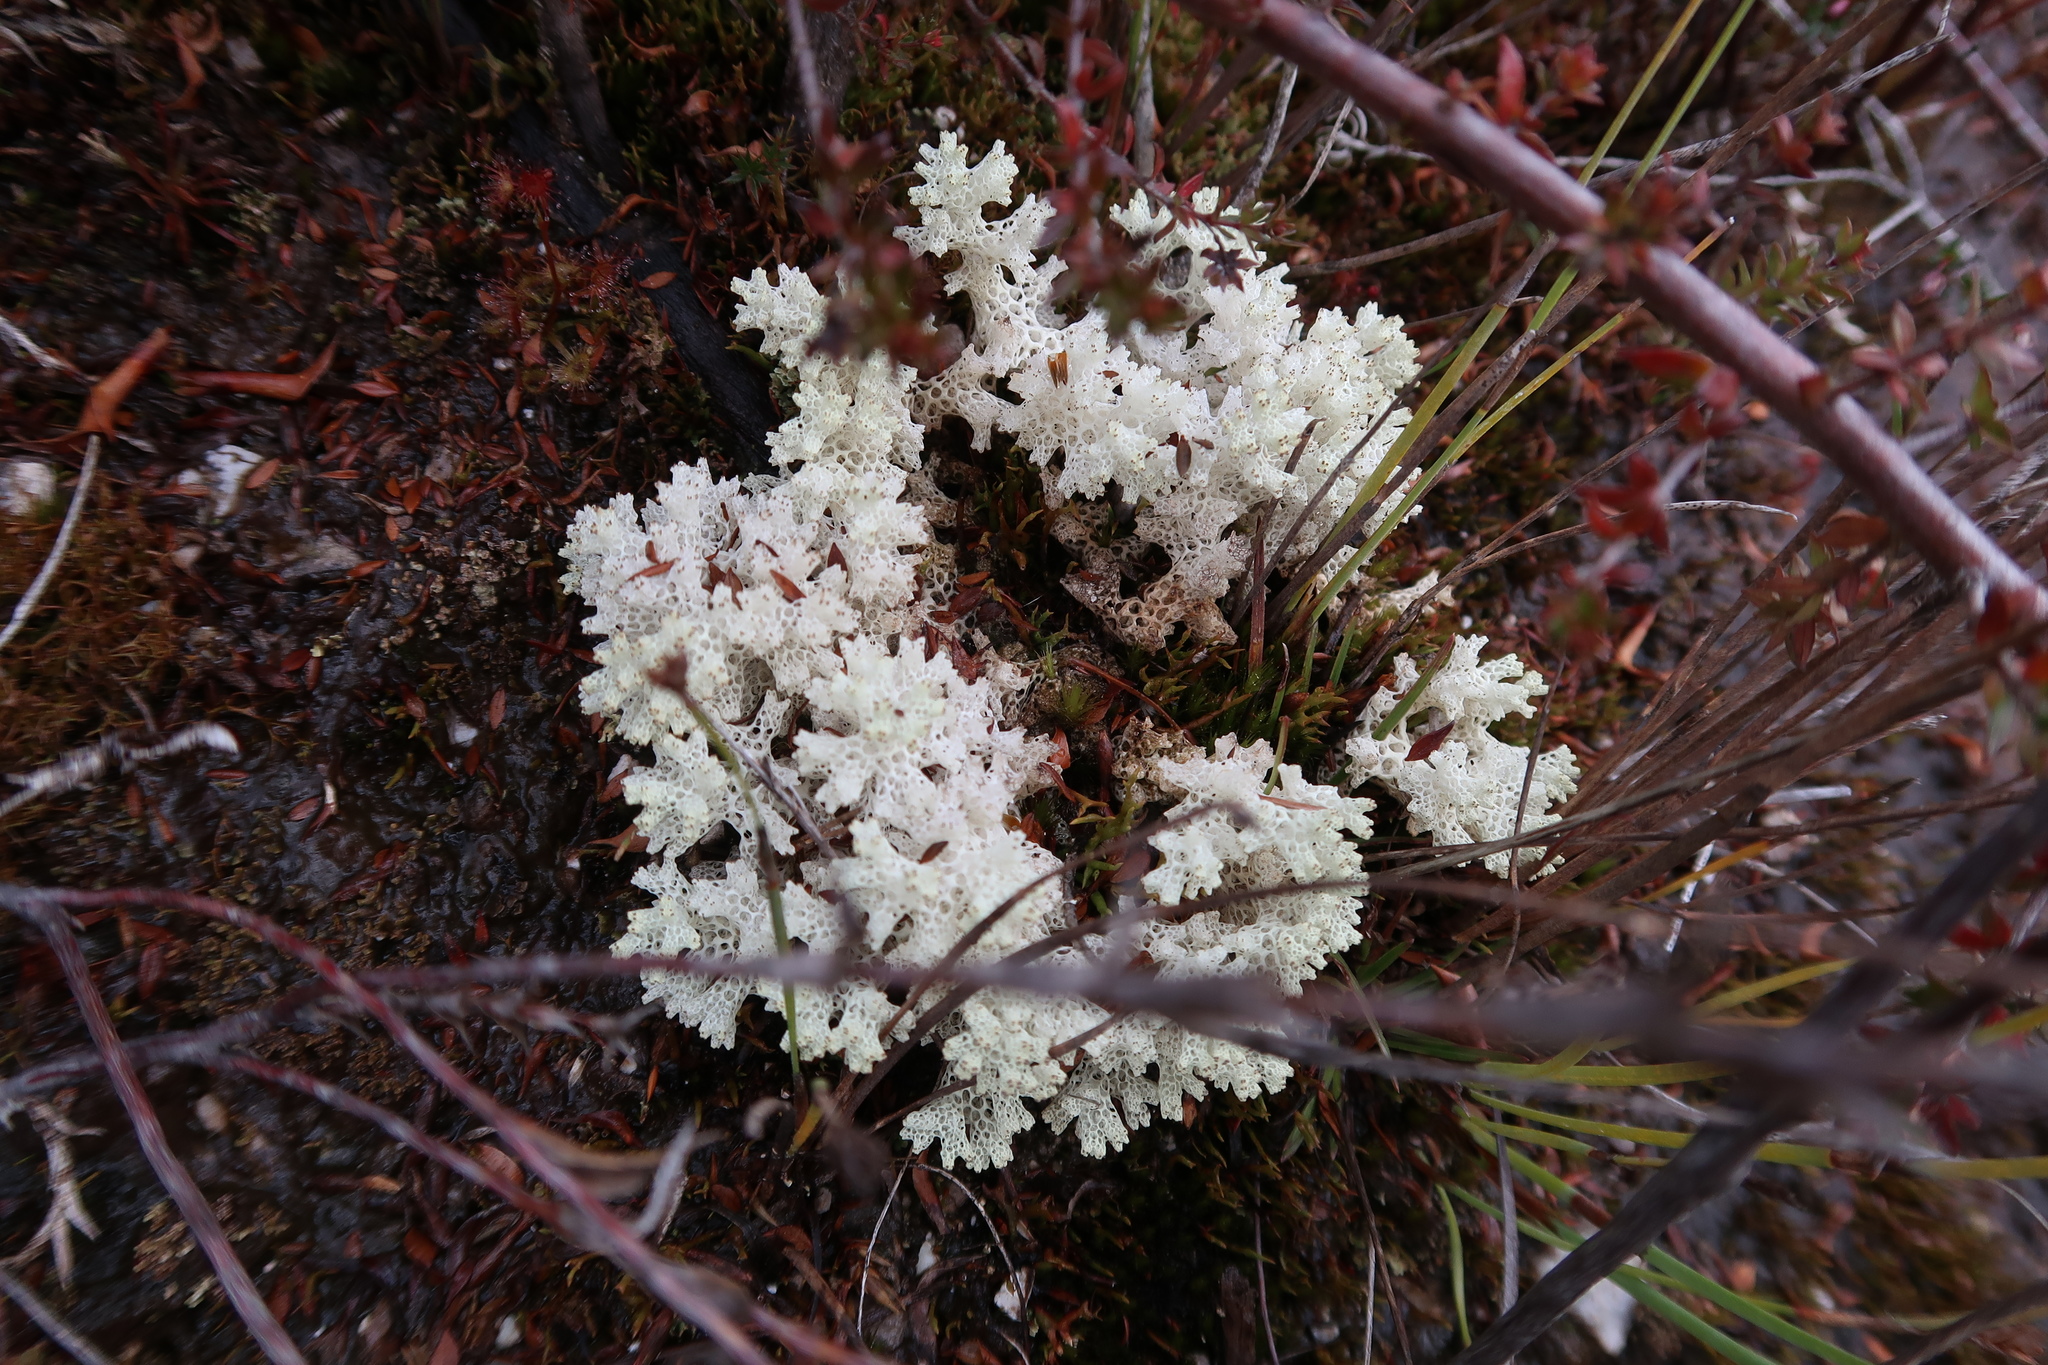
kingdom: Fungi
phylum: Ascomycota
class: Lecanoromycetes
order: Lecanorales
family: Cladoniaceae
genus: Pulchrocladia
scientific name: Pulchrocladia retipora
